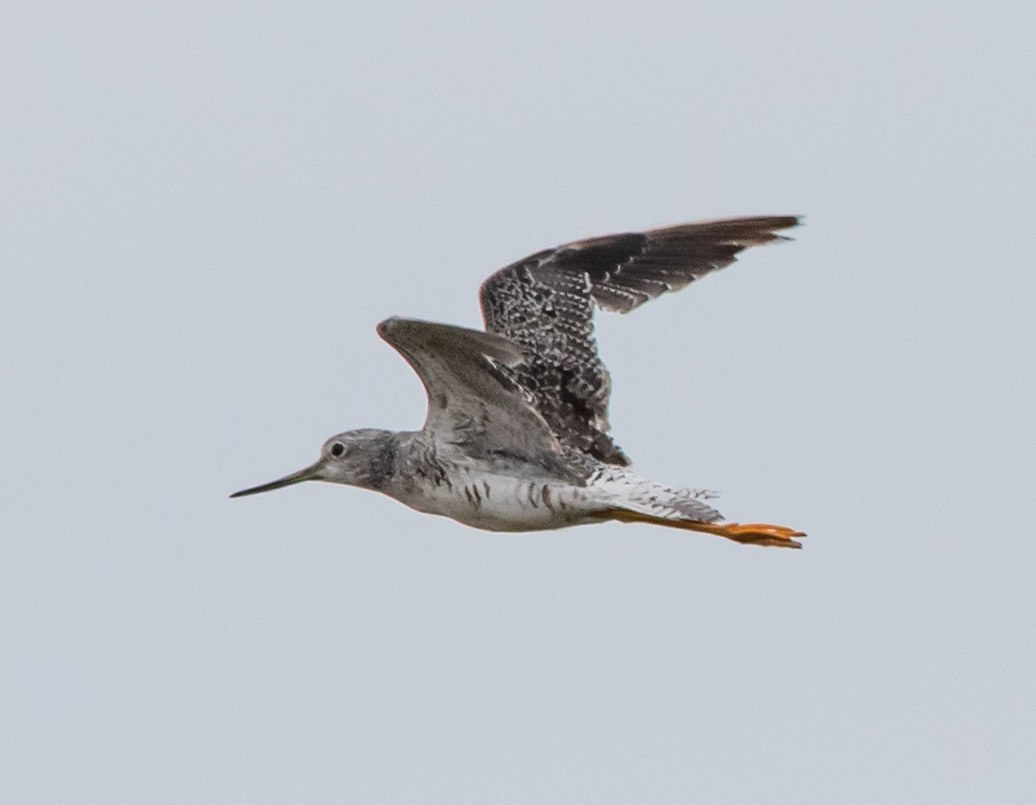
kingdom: Animalia
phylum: Chordata
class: Aves
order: Charadriiformes
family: Scolopacidae
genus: Tringa
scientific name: Tringa melanoleuca
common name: Greater yellowlegs
